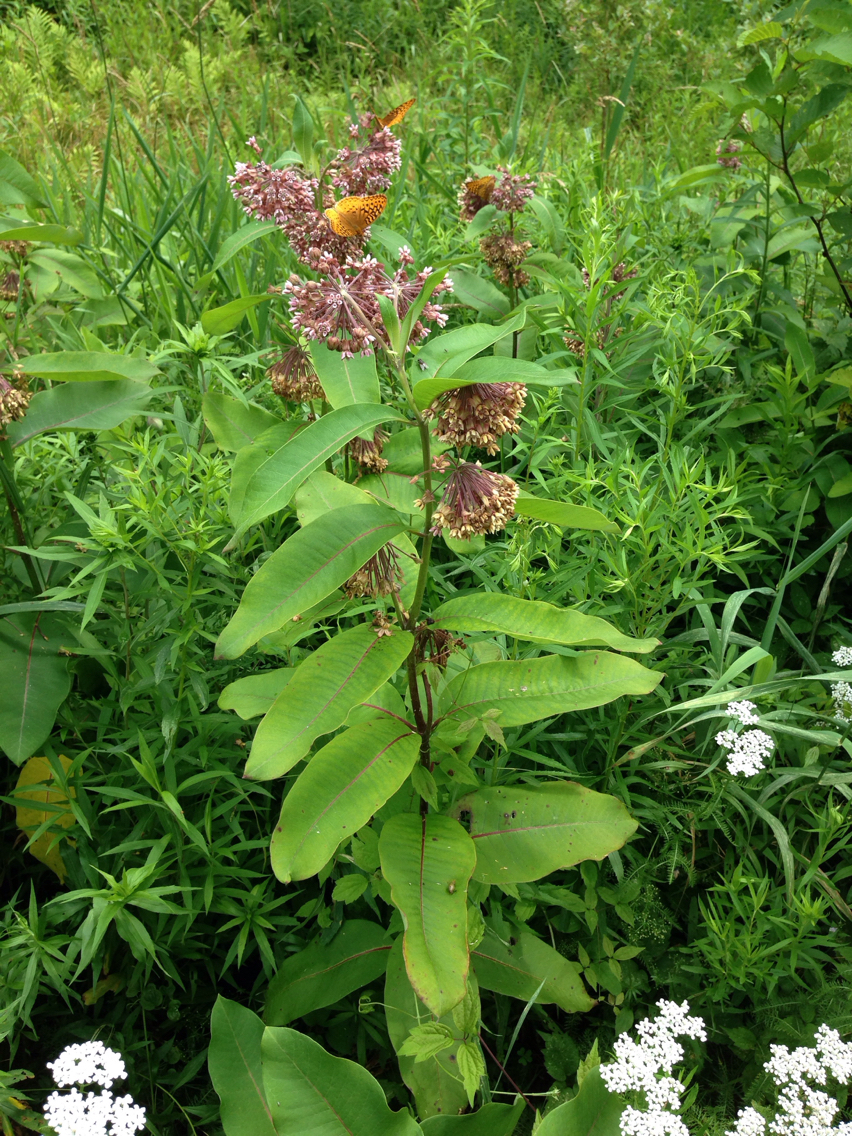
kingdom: Plantae
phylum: Tracheophyta
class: Magnoliopsida
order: Gentianales
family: Apocynaceae
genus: Asclepias
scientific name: Asclepias syriaca
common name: Common milkweed
